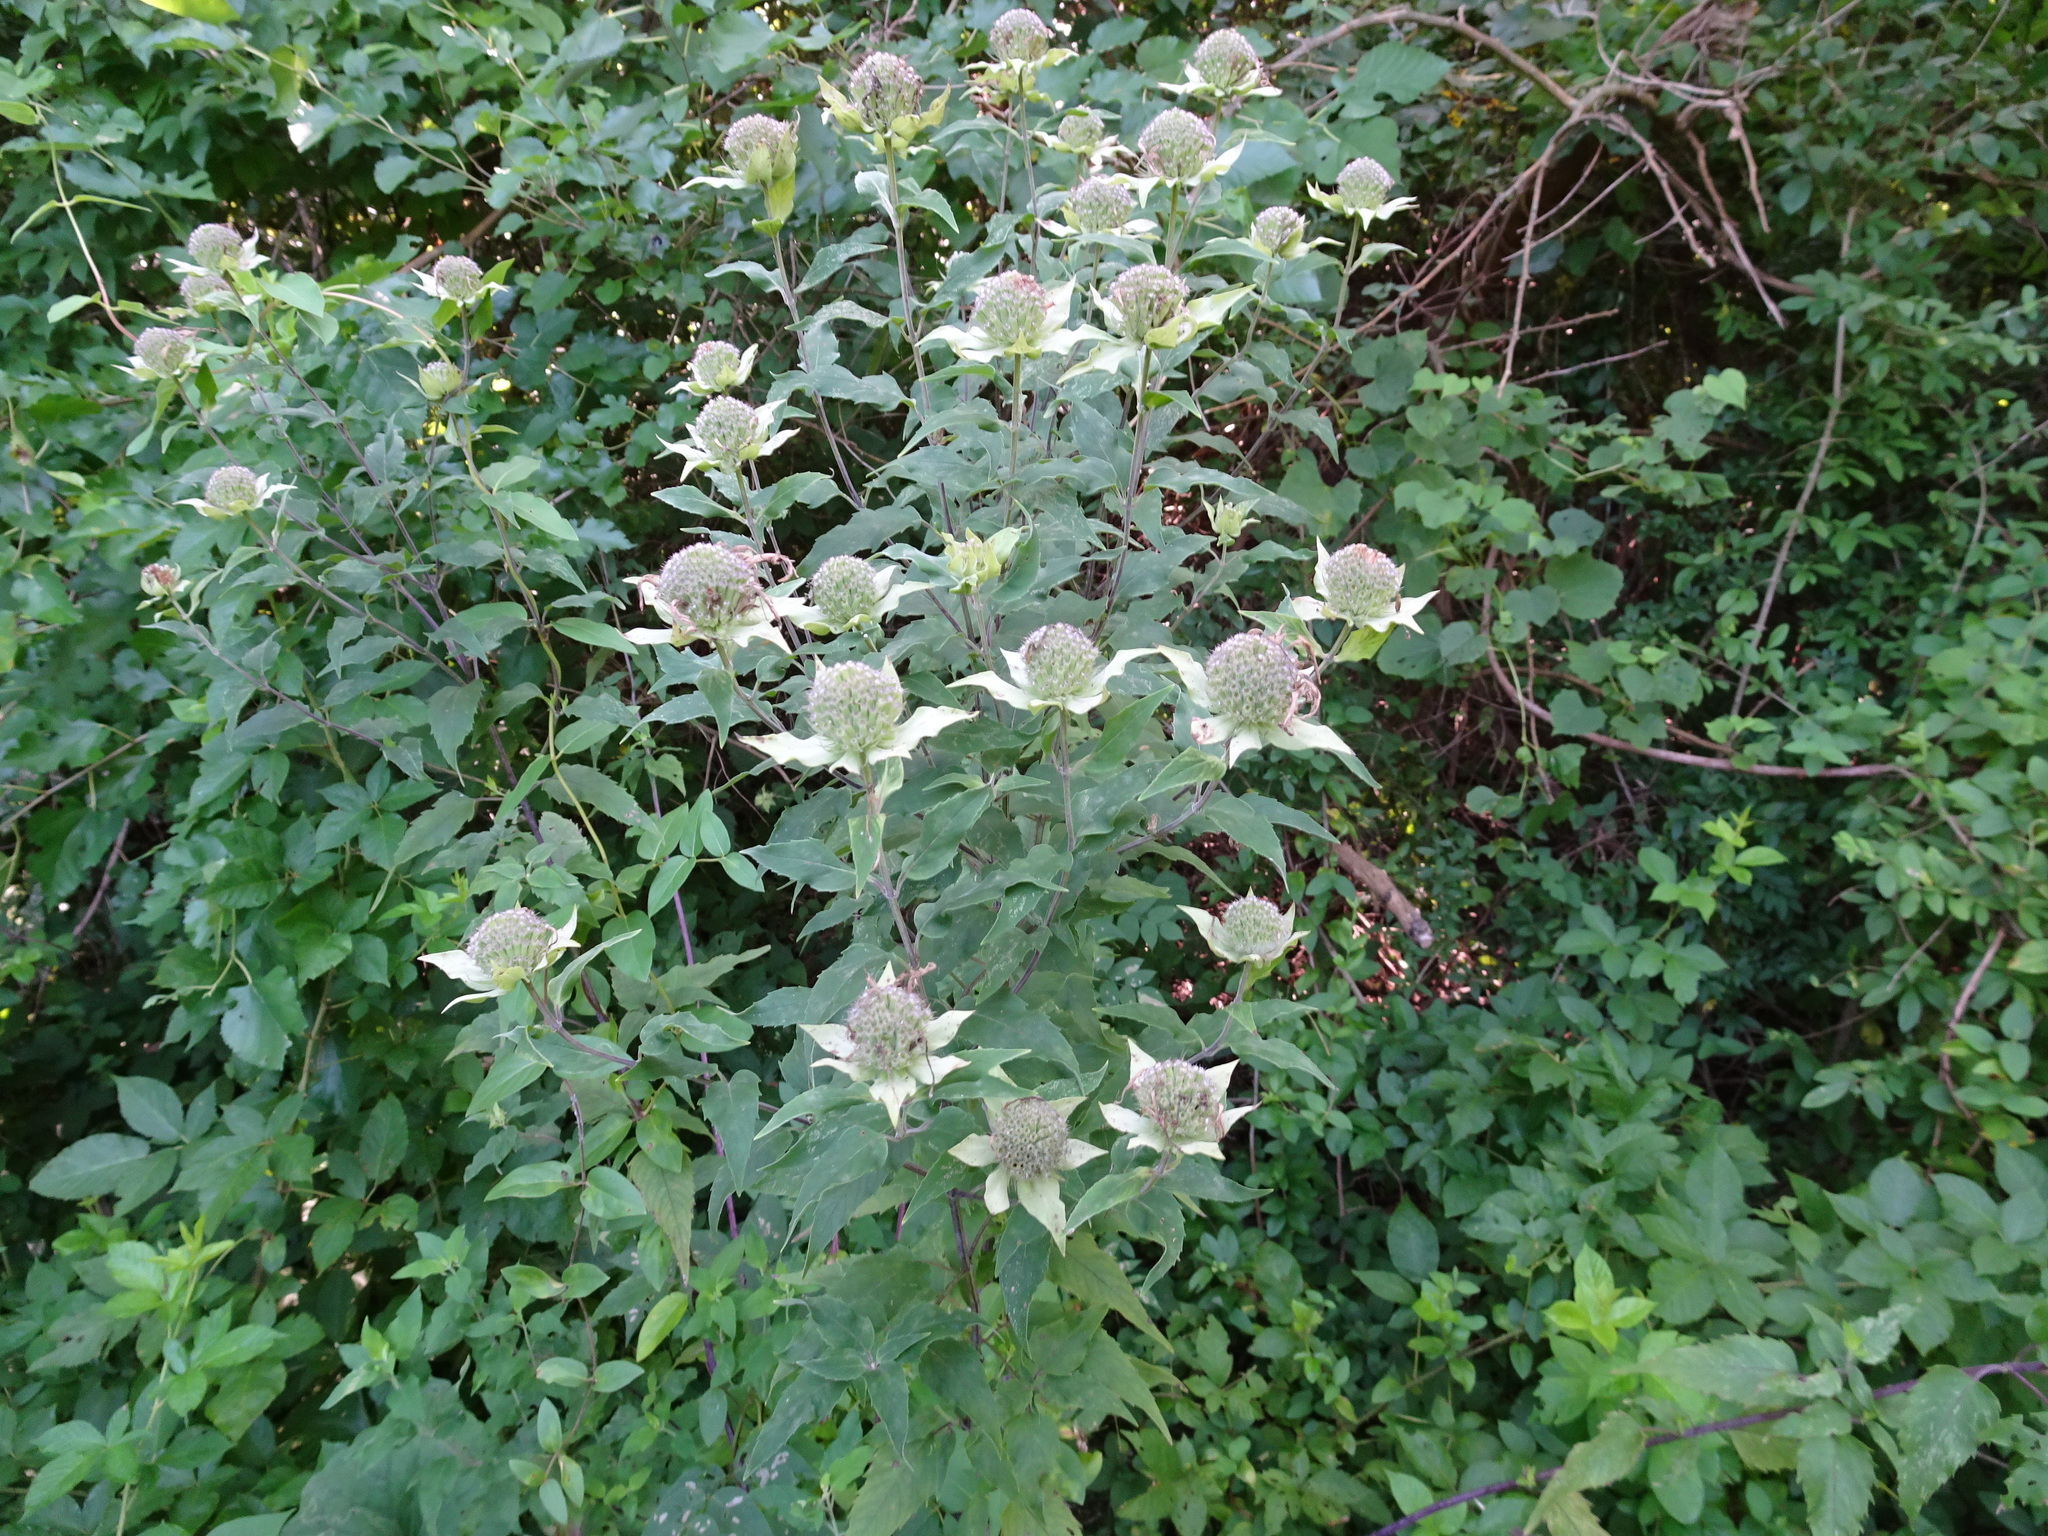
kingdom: Plantae
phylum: Tracheophyta
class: Magnoliopsida
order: Lamiales
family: Lamiaceae
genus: Monarda
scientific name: Monarda fistulosa
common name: Purple beebalm
